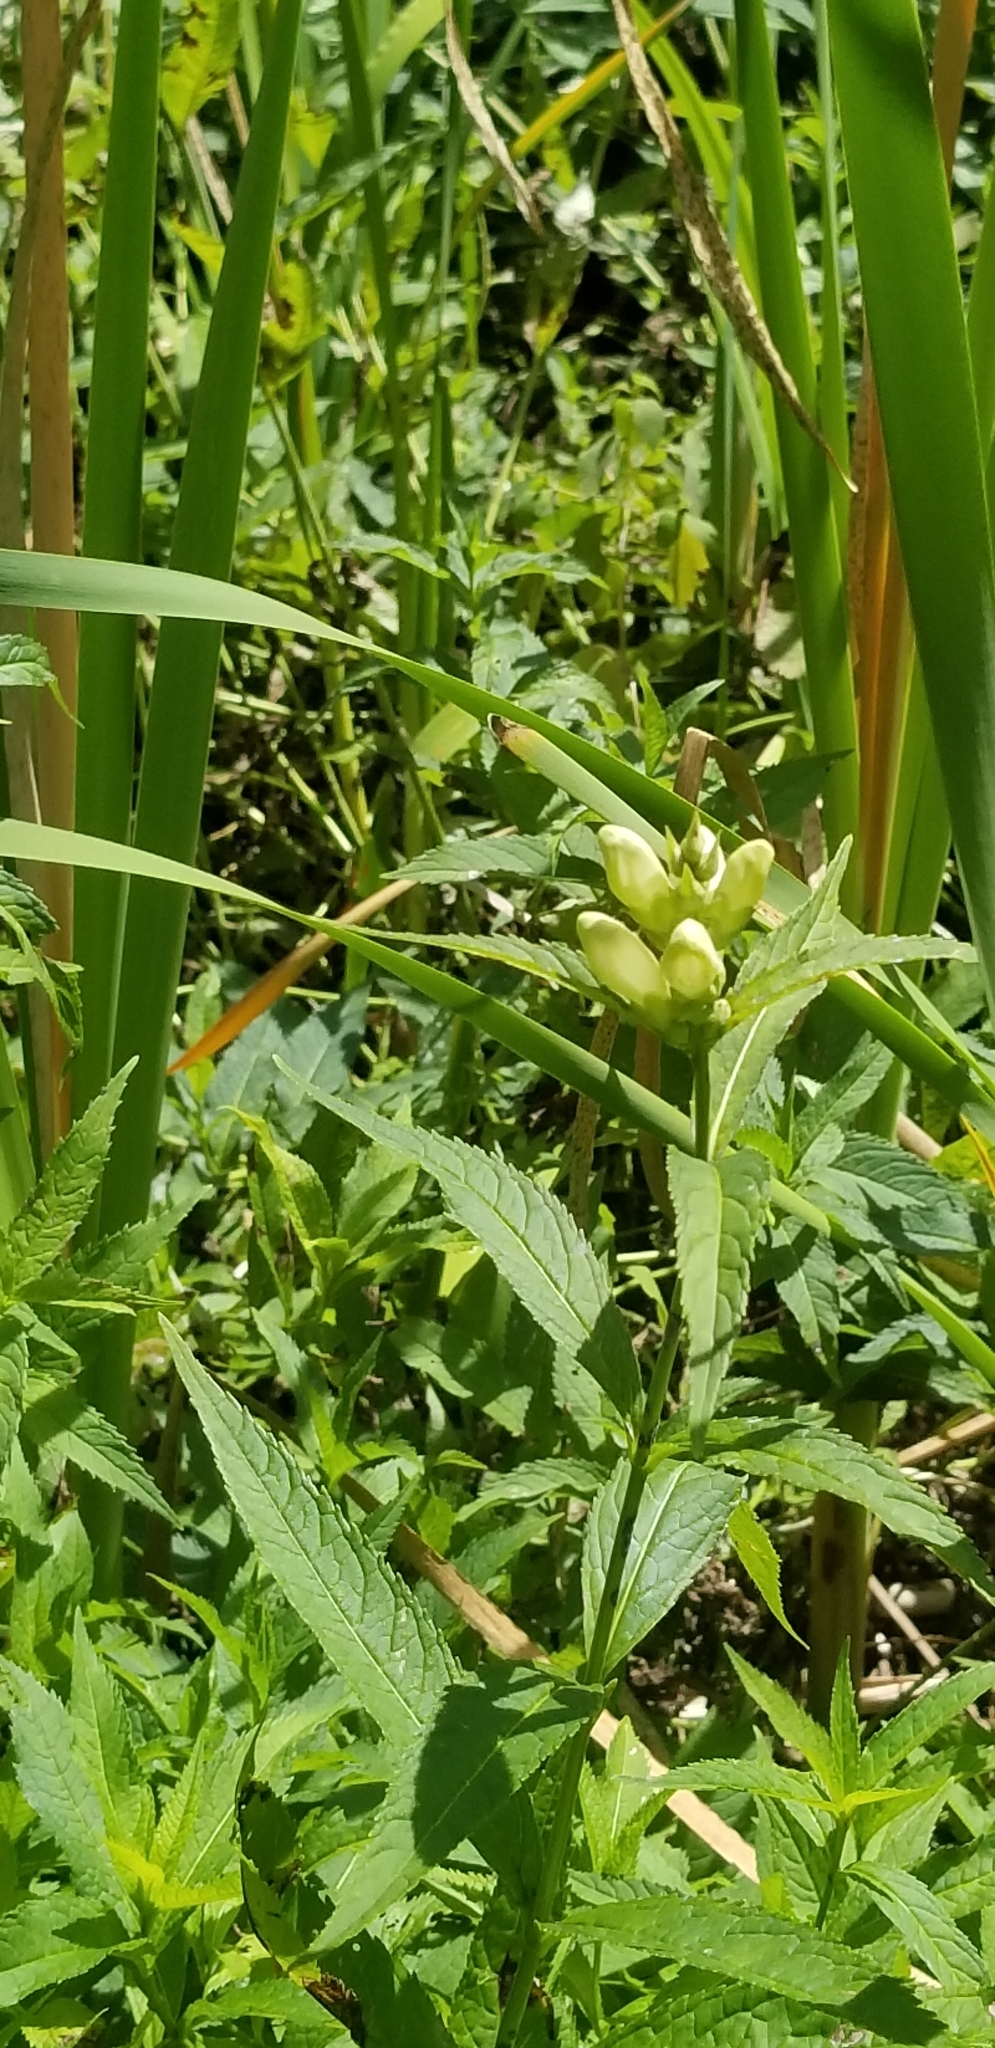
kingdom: Plantae
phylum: Tracheophyta
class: Magnoliopsida
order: Lamiales
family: Plantaginaceae
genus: Chelone
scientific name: Chelone glabra
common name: Snakehead
